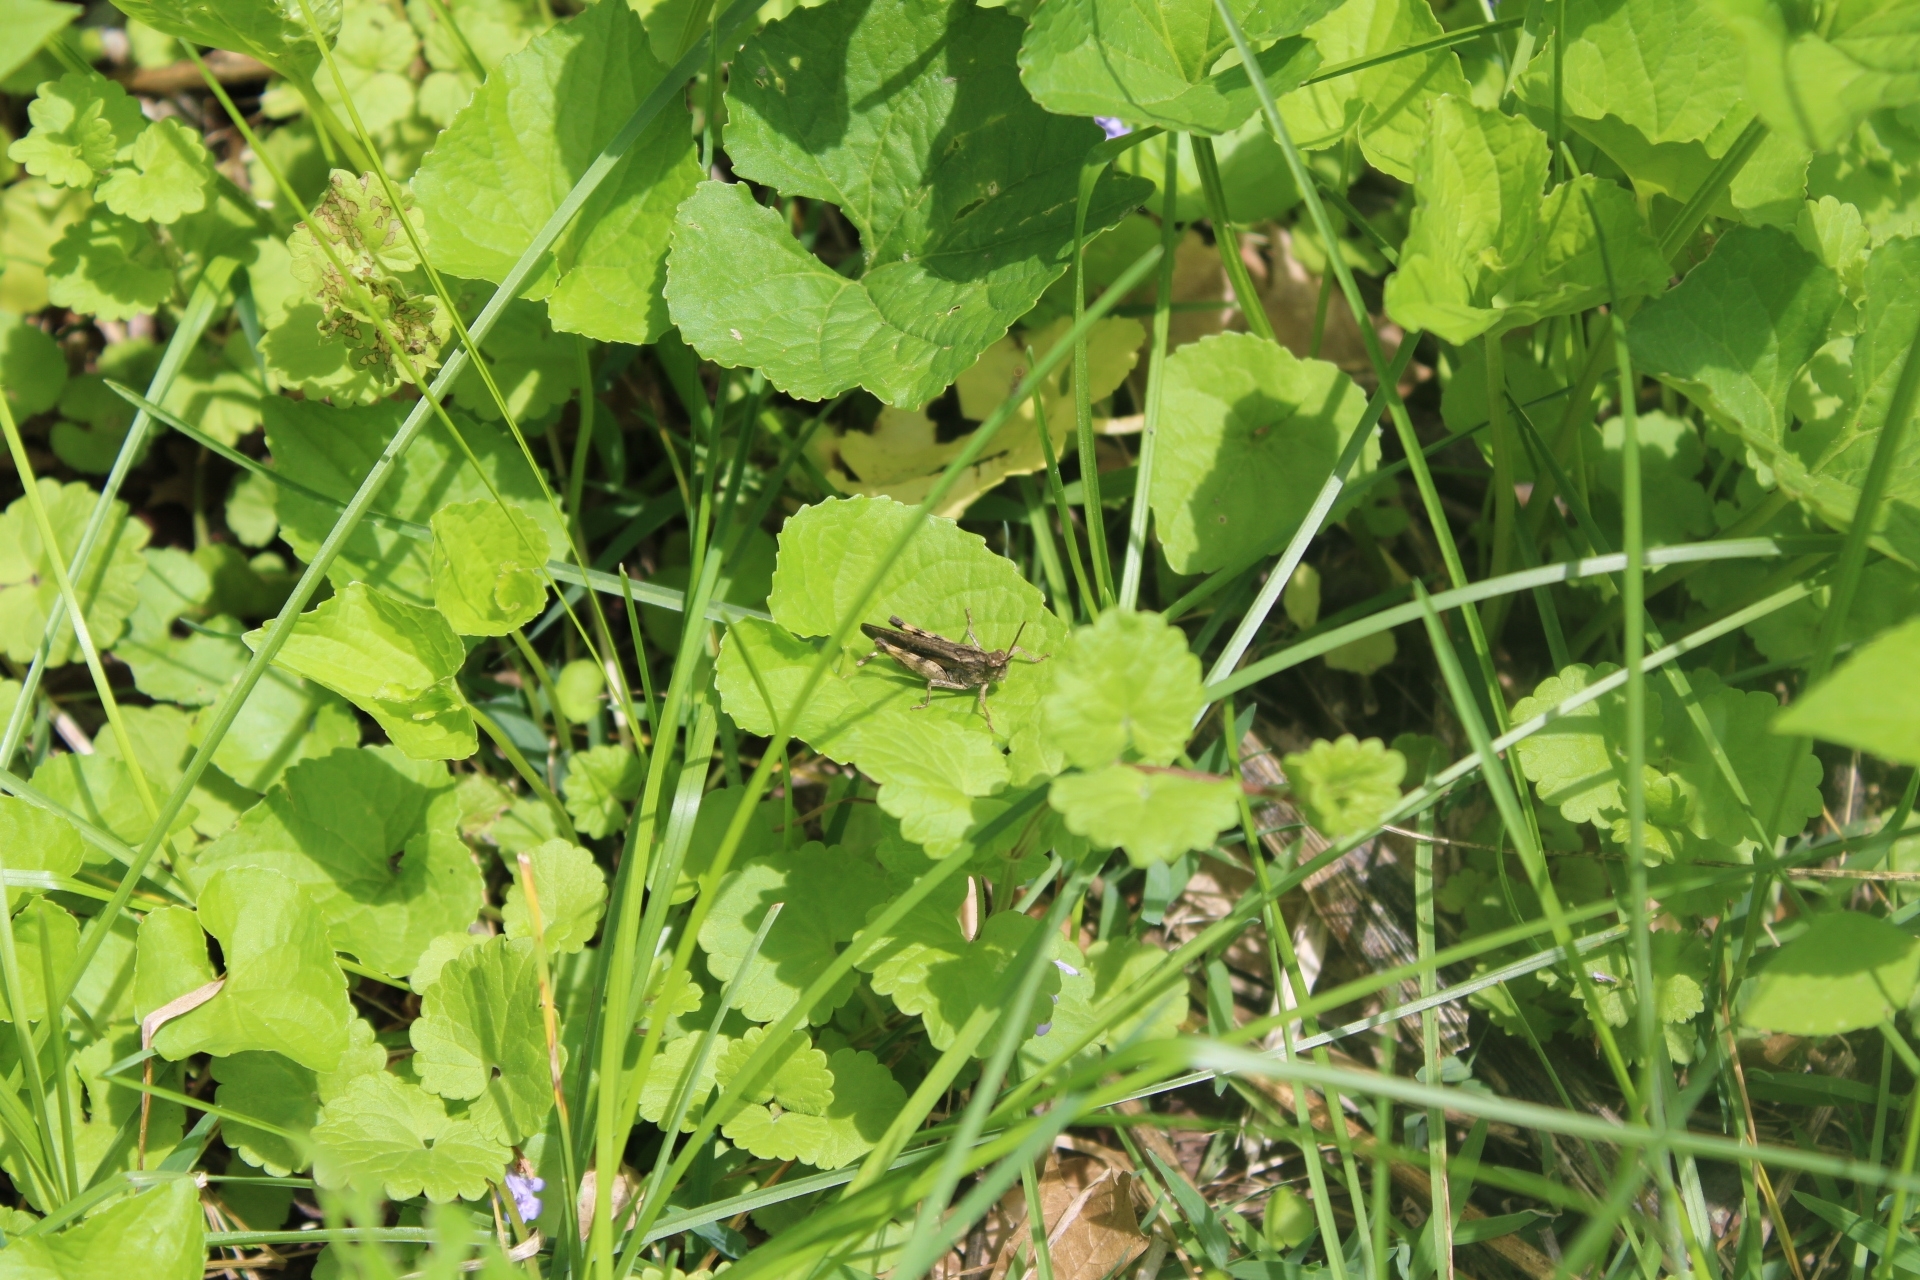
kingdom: Animalia
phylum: Arthropoda
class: Insecta
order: Orthoptera
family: Acrididae
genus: Chortophaga
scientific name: Chortophaga viridifasciata
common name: Green-striped grasshopper
